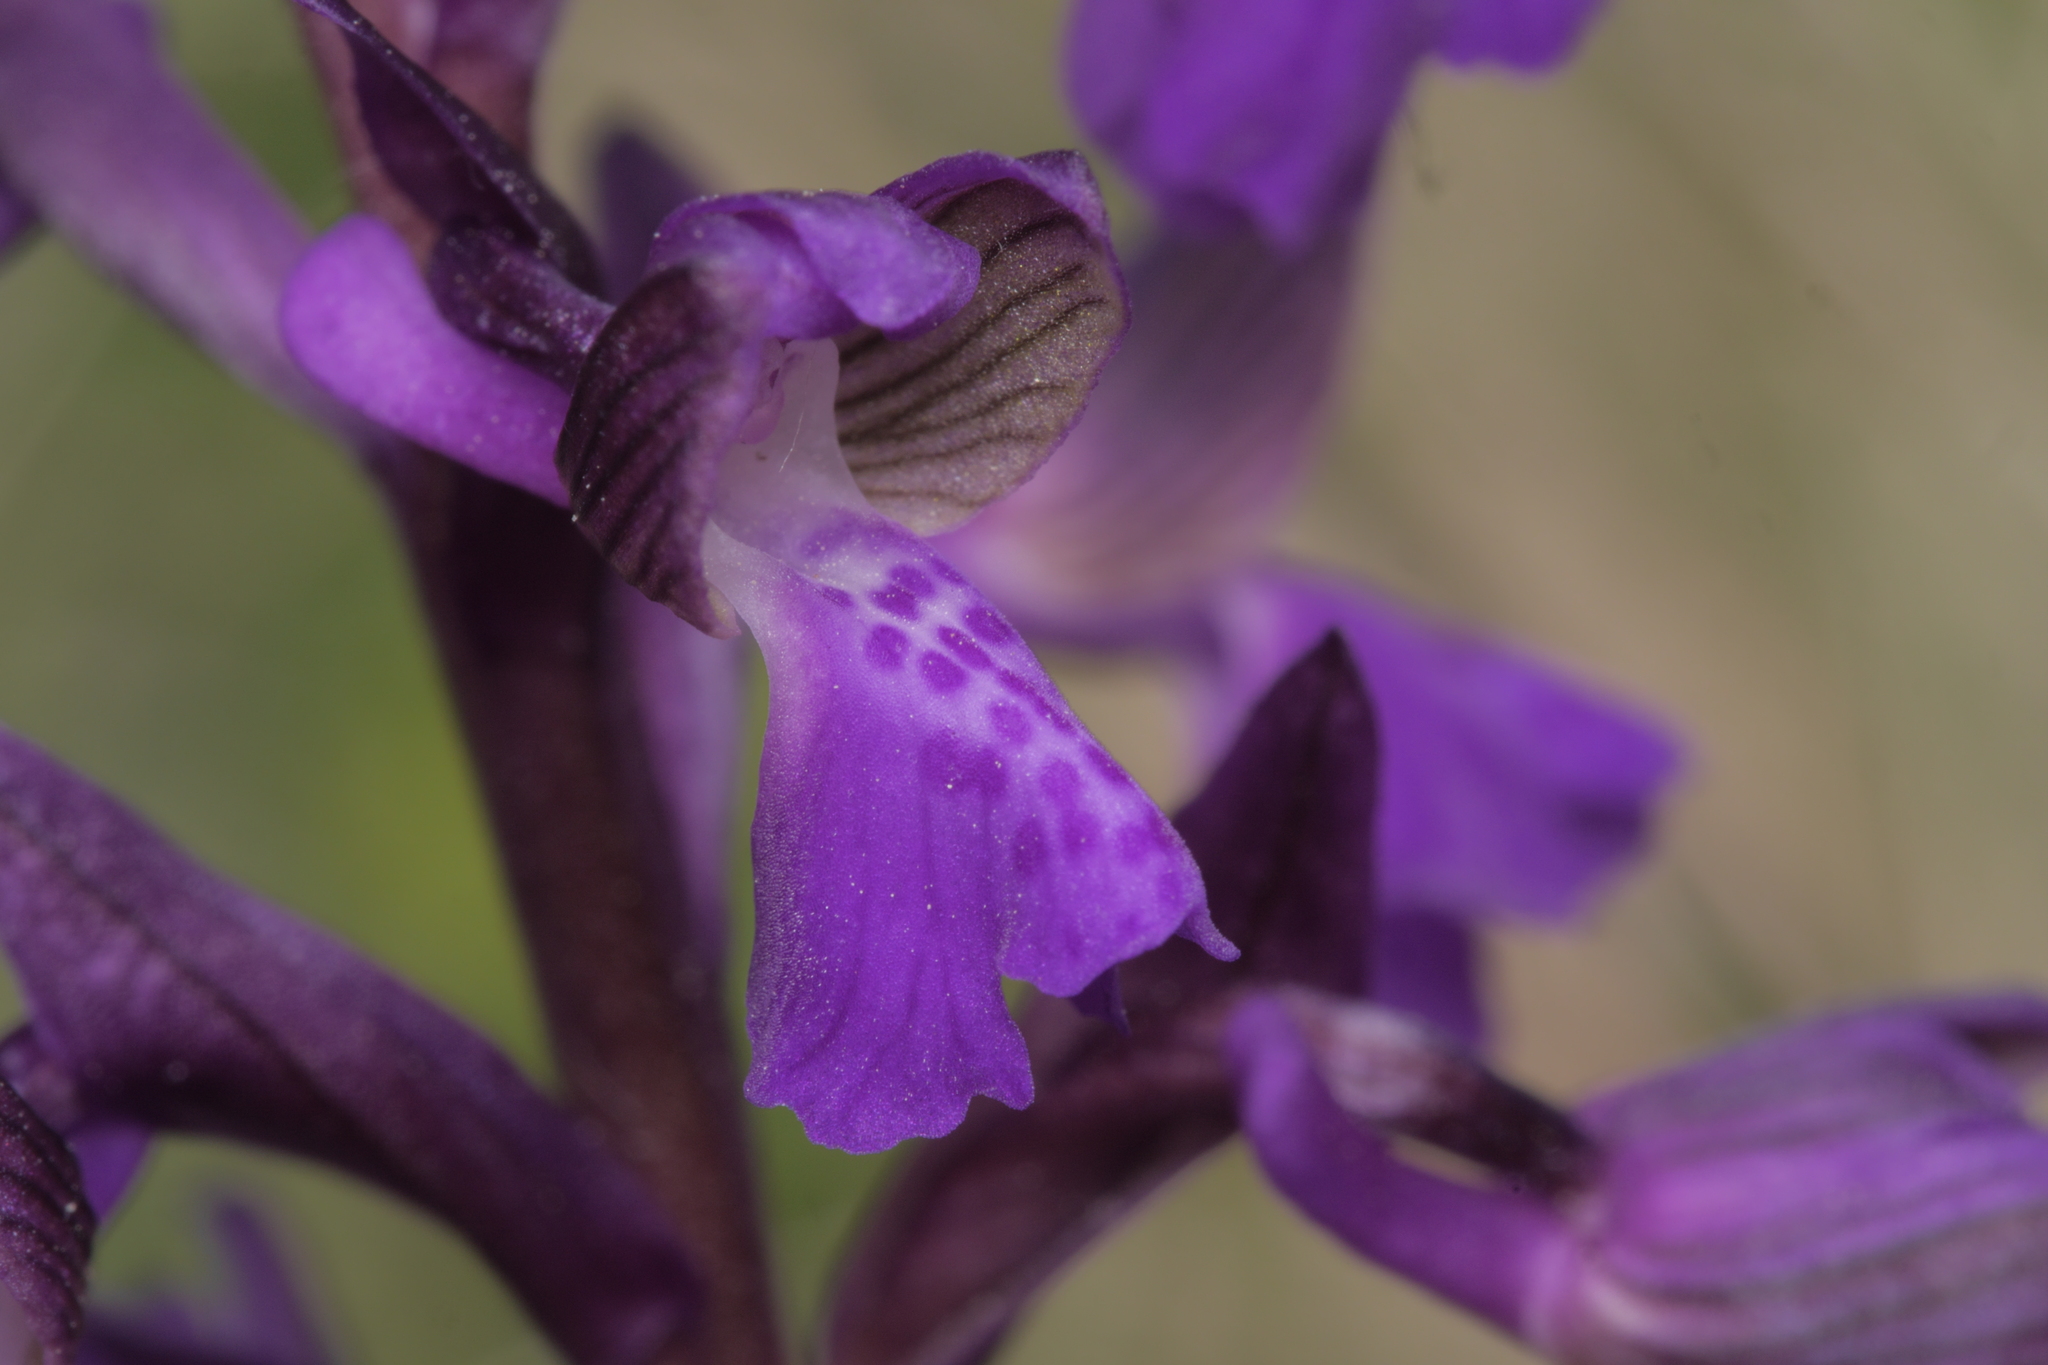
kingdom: Plantae
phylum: Tracheophyta
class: Liliopsida
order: Asparagales
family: Orchidaceae
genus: Anacamptis
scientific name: Anacamptis morio
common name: Green-winged orchid
